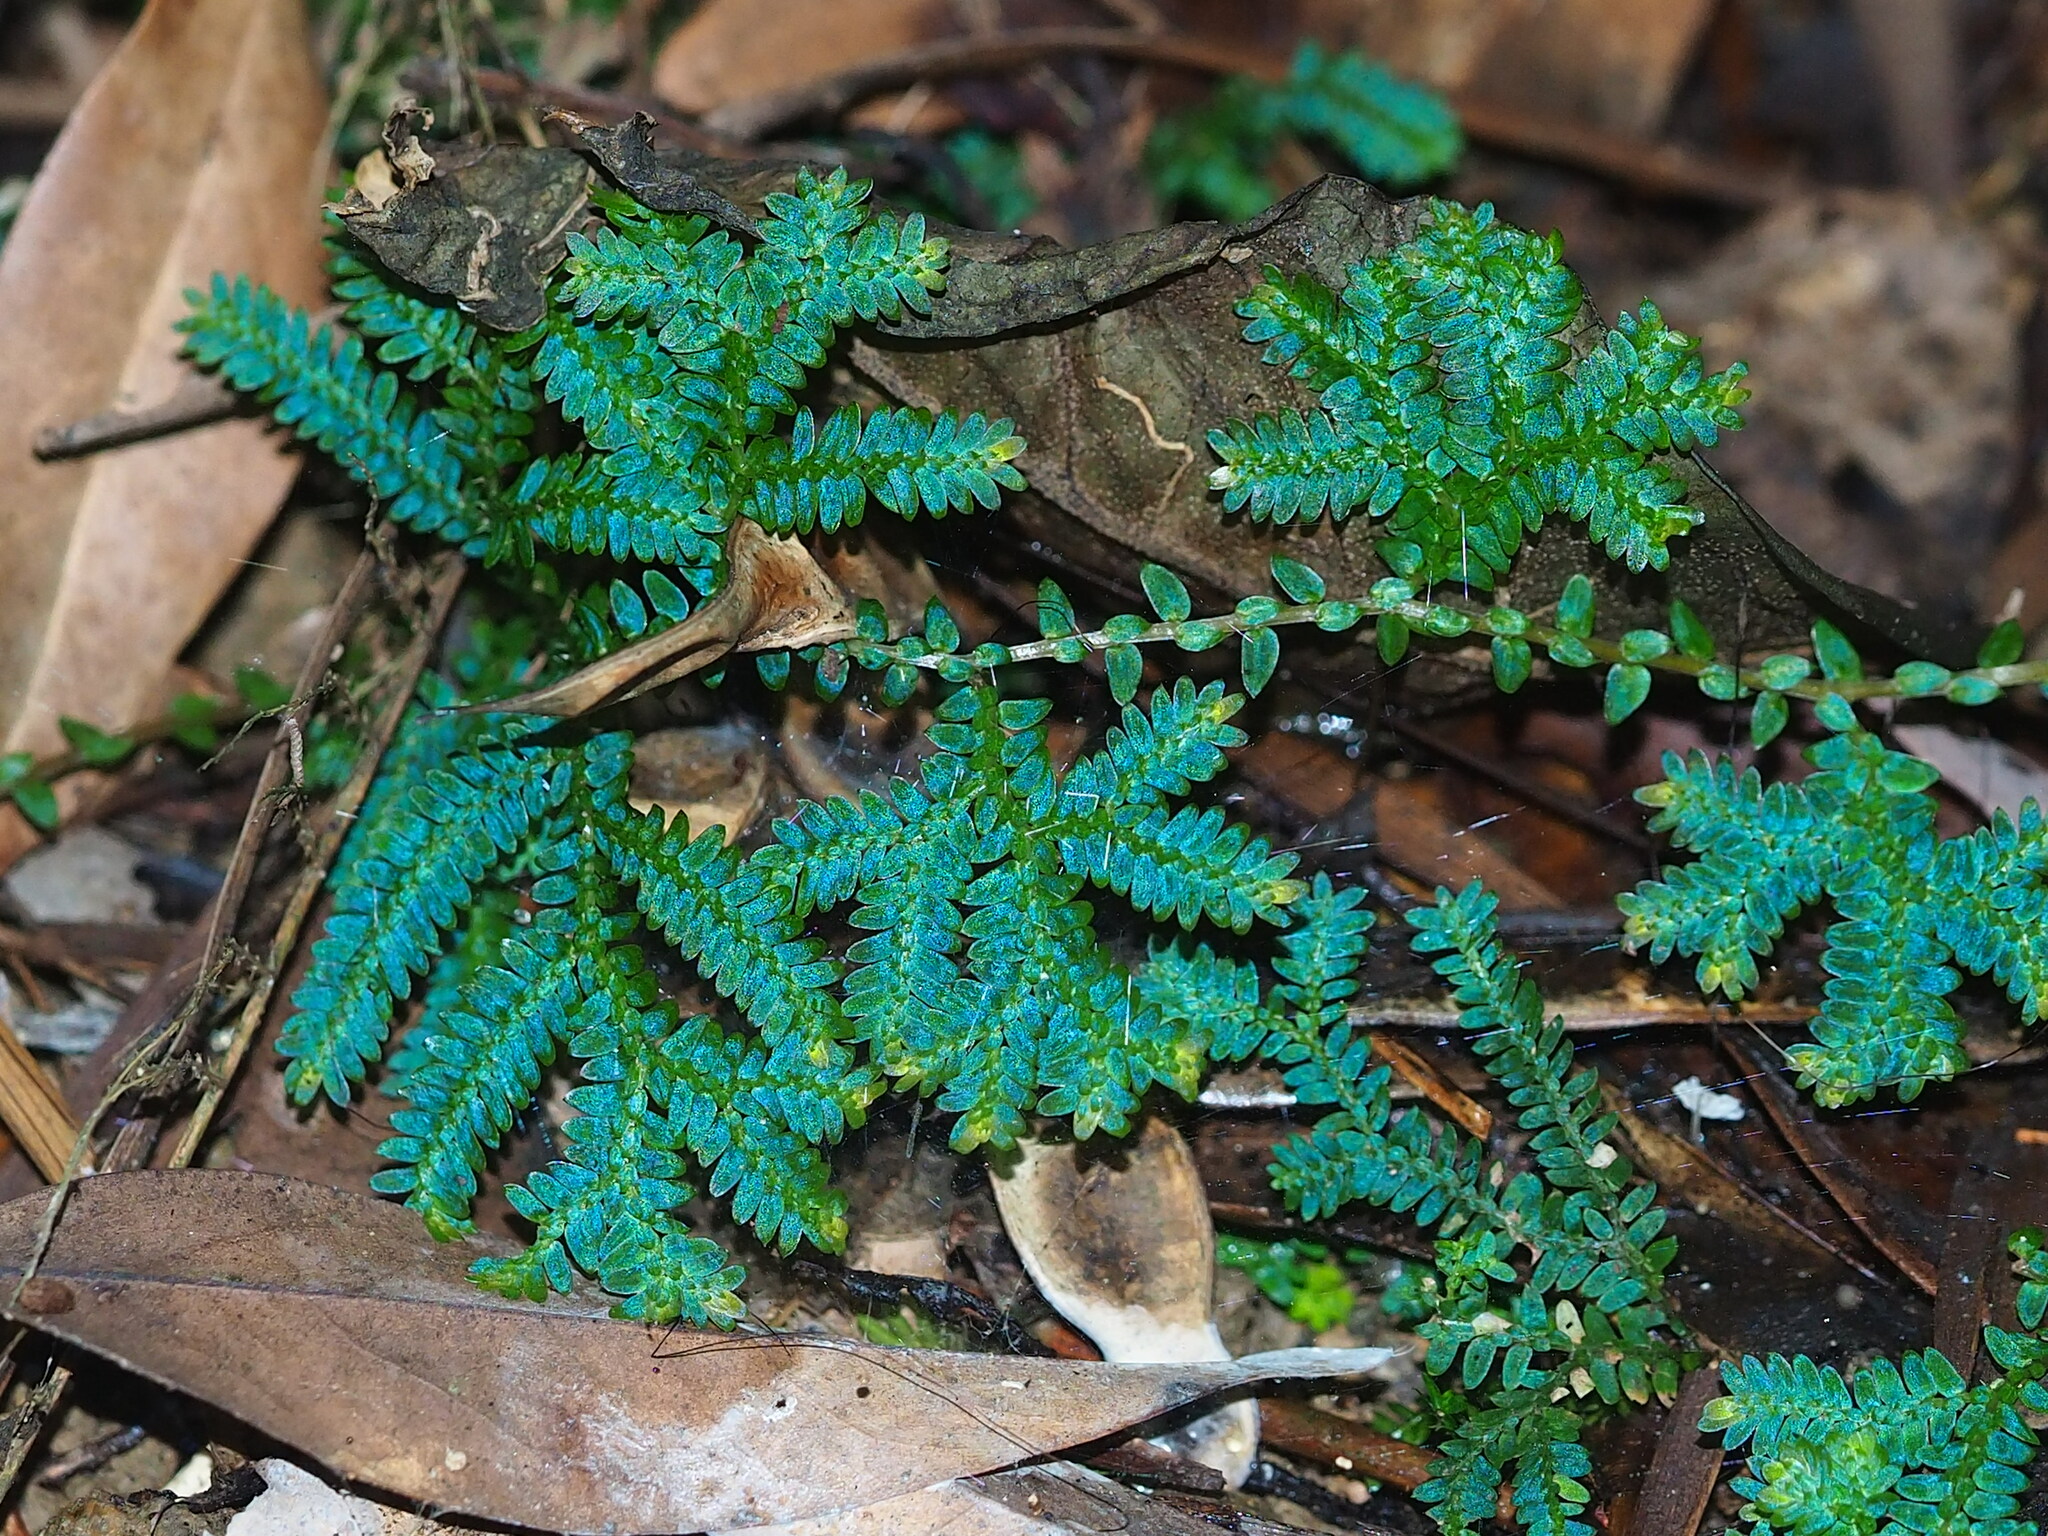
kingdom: Plantae
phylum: Tracheophyta
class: Lycopodiopsida
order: Selaginellales
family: Selaginellaceae
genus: Selaginella
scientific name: Selaginella uncinata
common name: Blue spikemoss
